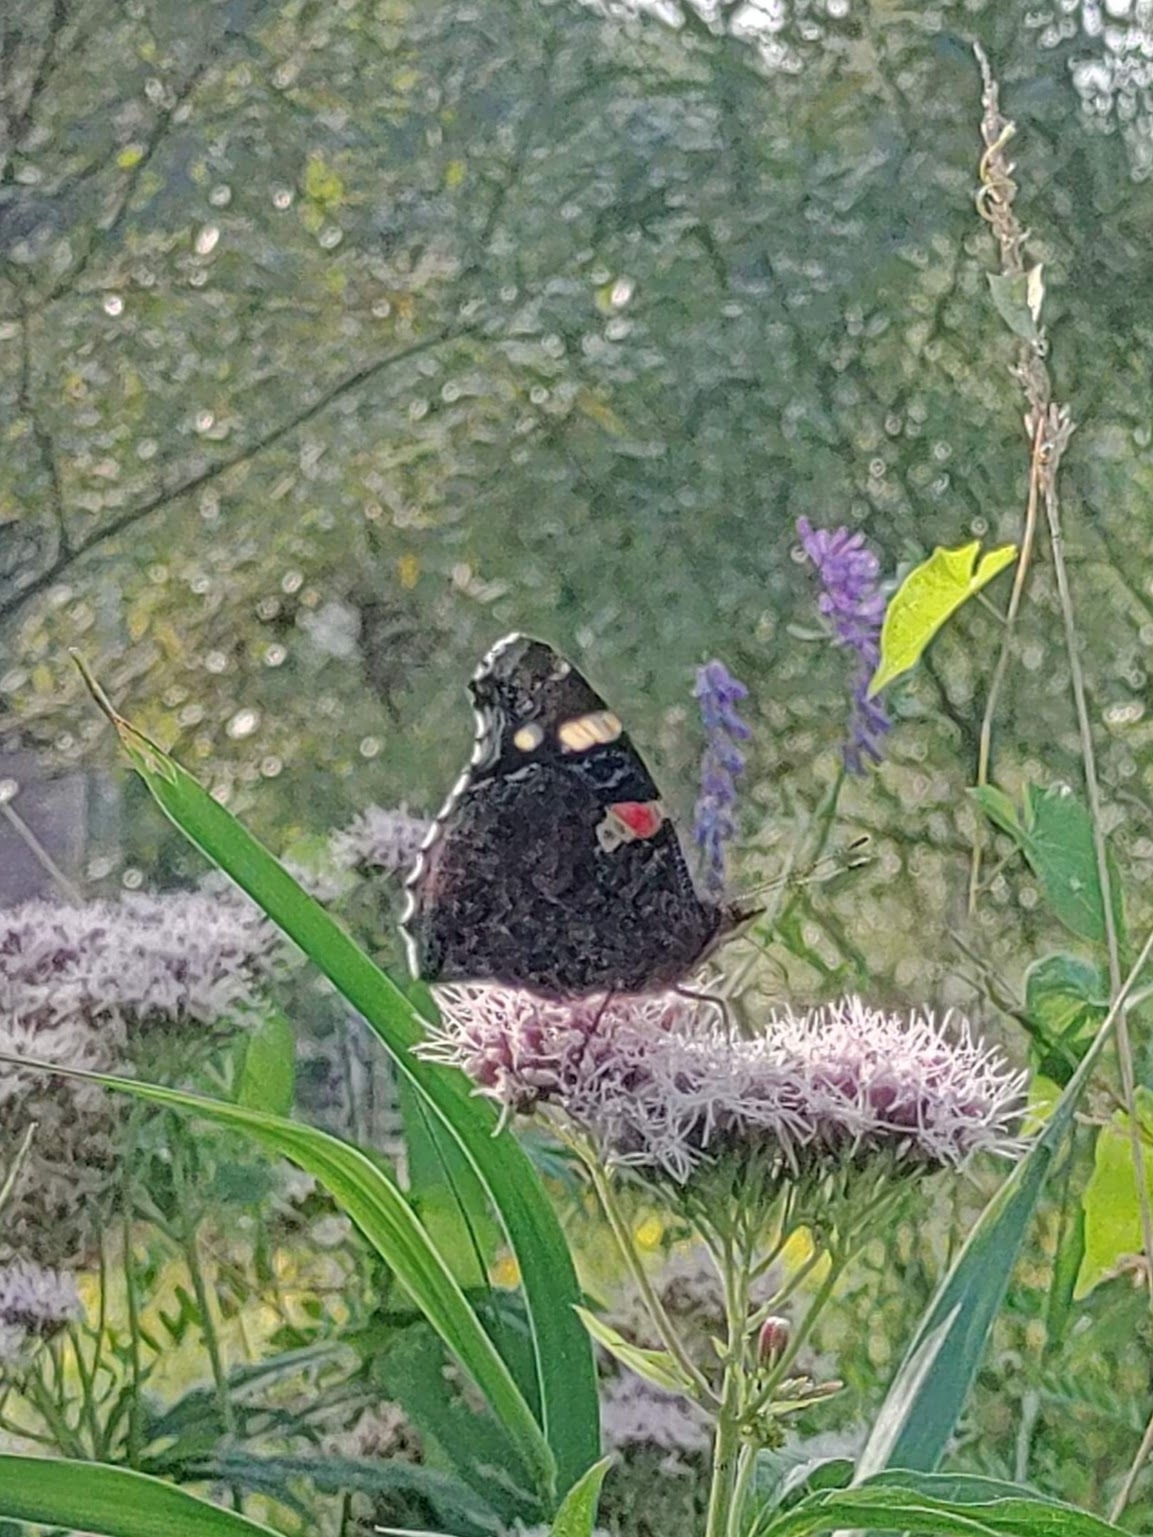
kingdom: Animalia
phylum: Arthropoda
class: Insecta
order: Lepidoptera
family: Nymphalidae
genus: Vanessa
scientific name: Vanessa atalanta
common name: Red admiral
